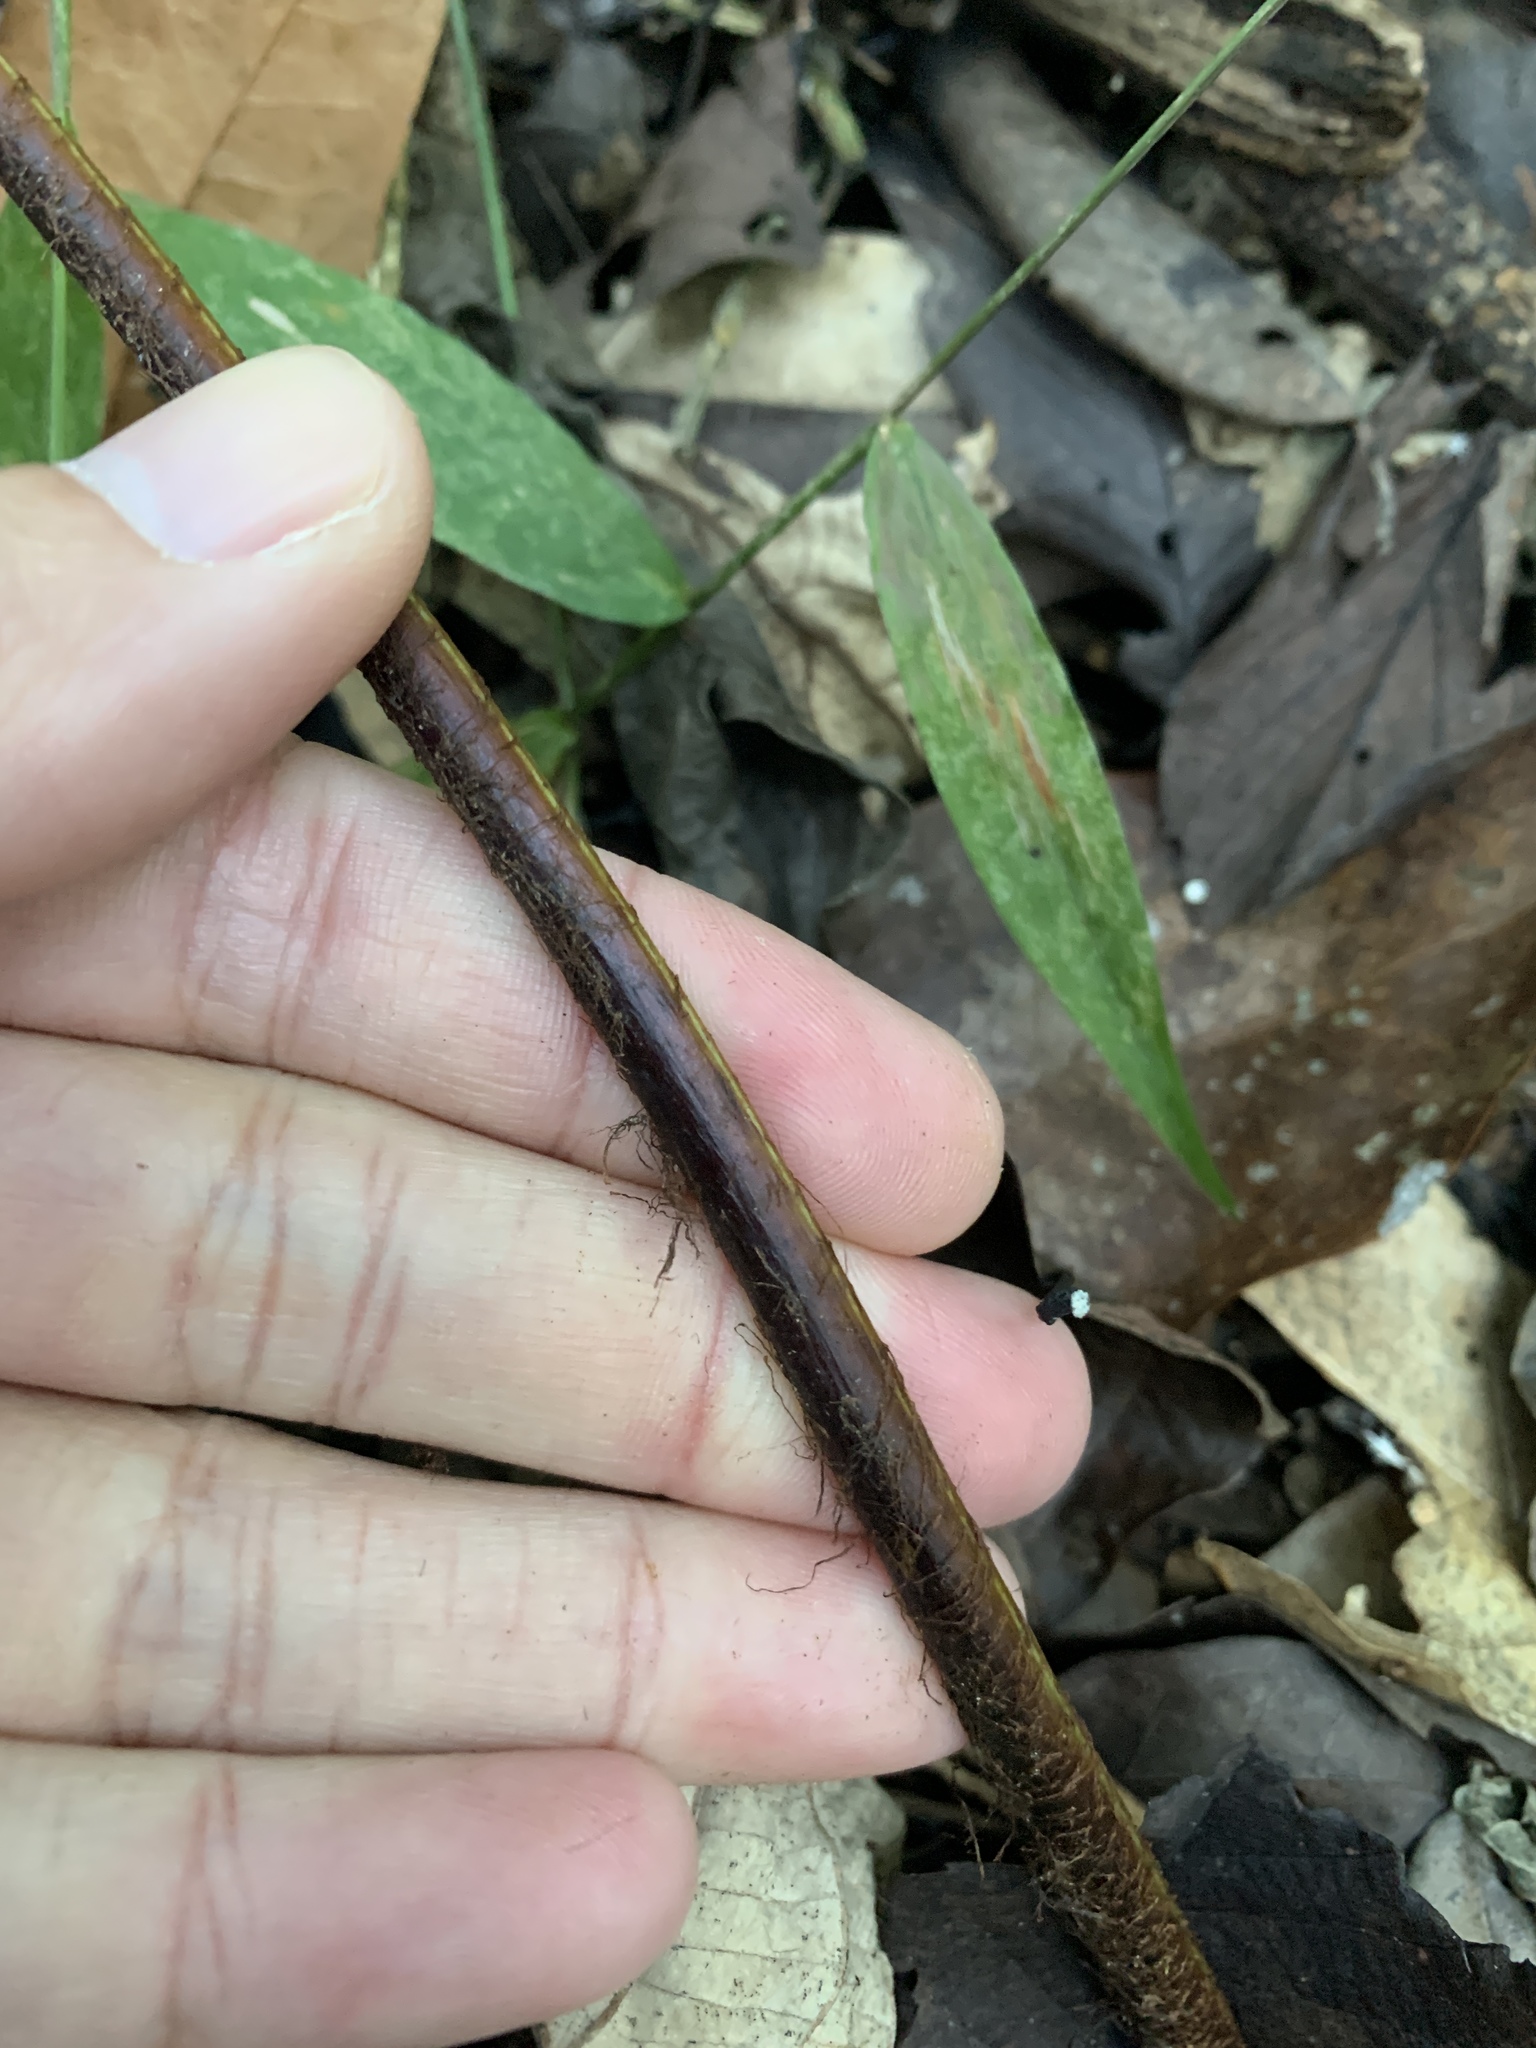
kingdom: Plantae
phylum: Tracheophyta
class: Polypodiopsida
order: Polypodiales
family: Dryopteridaceae
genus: Dryopteris
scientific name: Dryopteris pseudosieboldii
